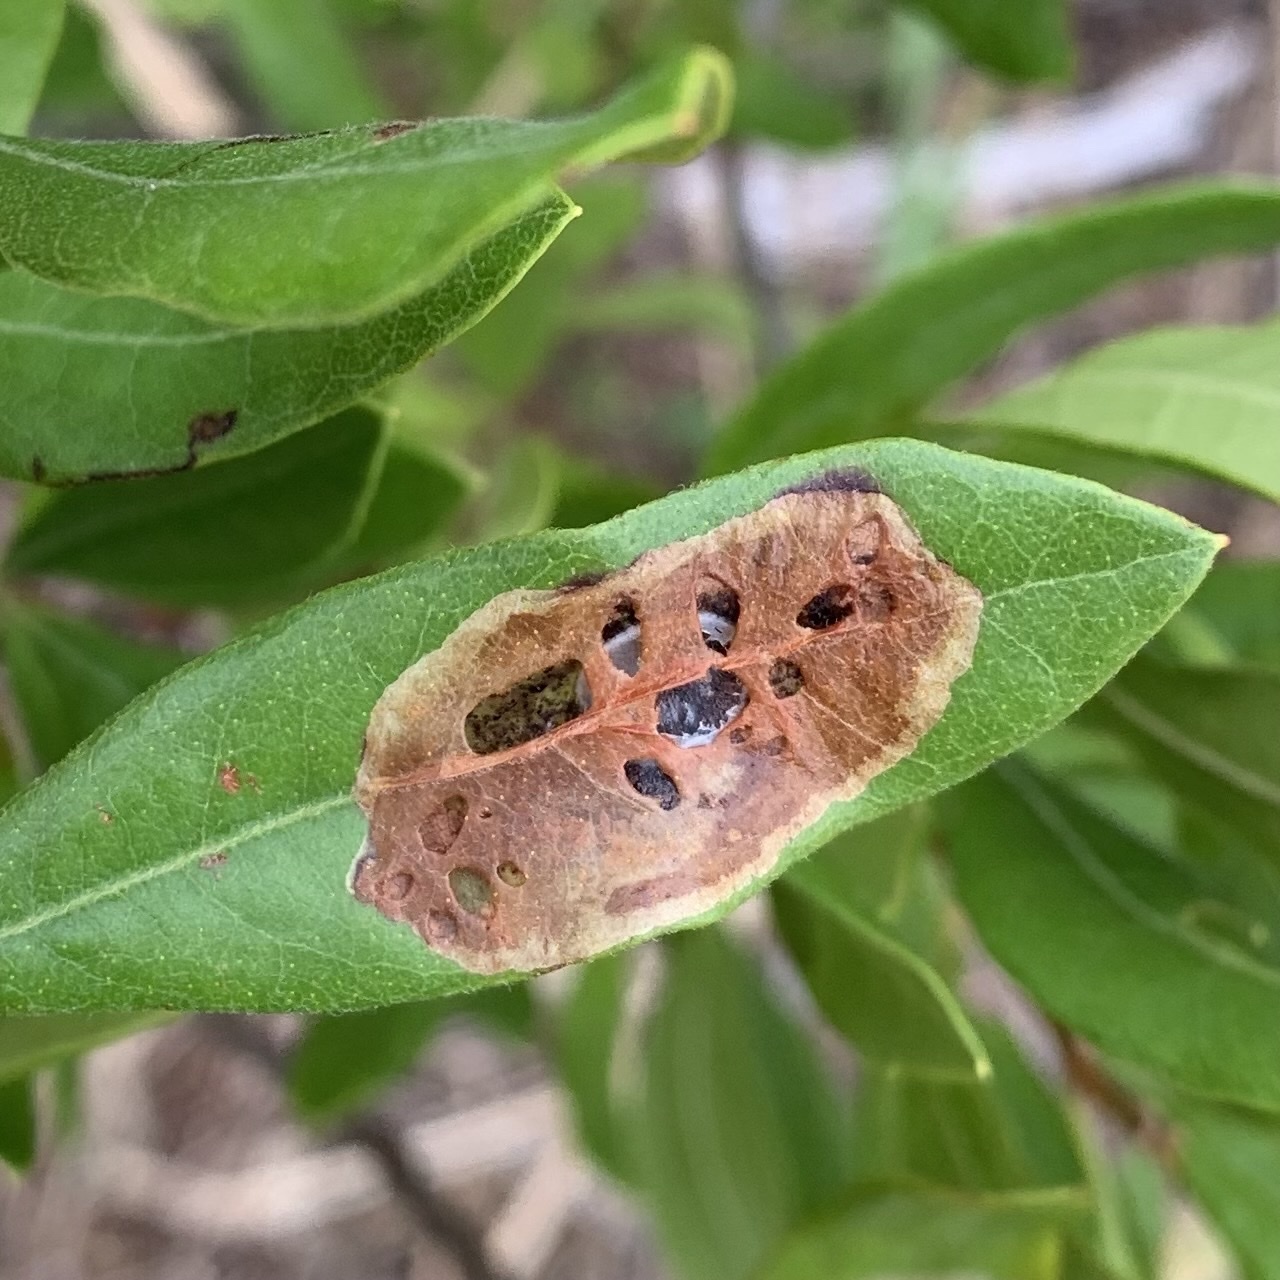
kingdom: Animalia
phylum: Arthropoda
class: Insecta
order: Lepidoptera
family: Gracillariidae
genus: Cameraria
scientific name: Cameraria picturatella
